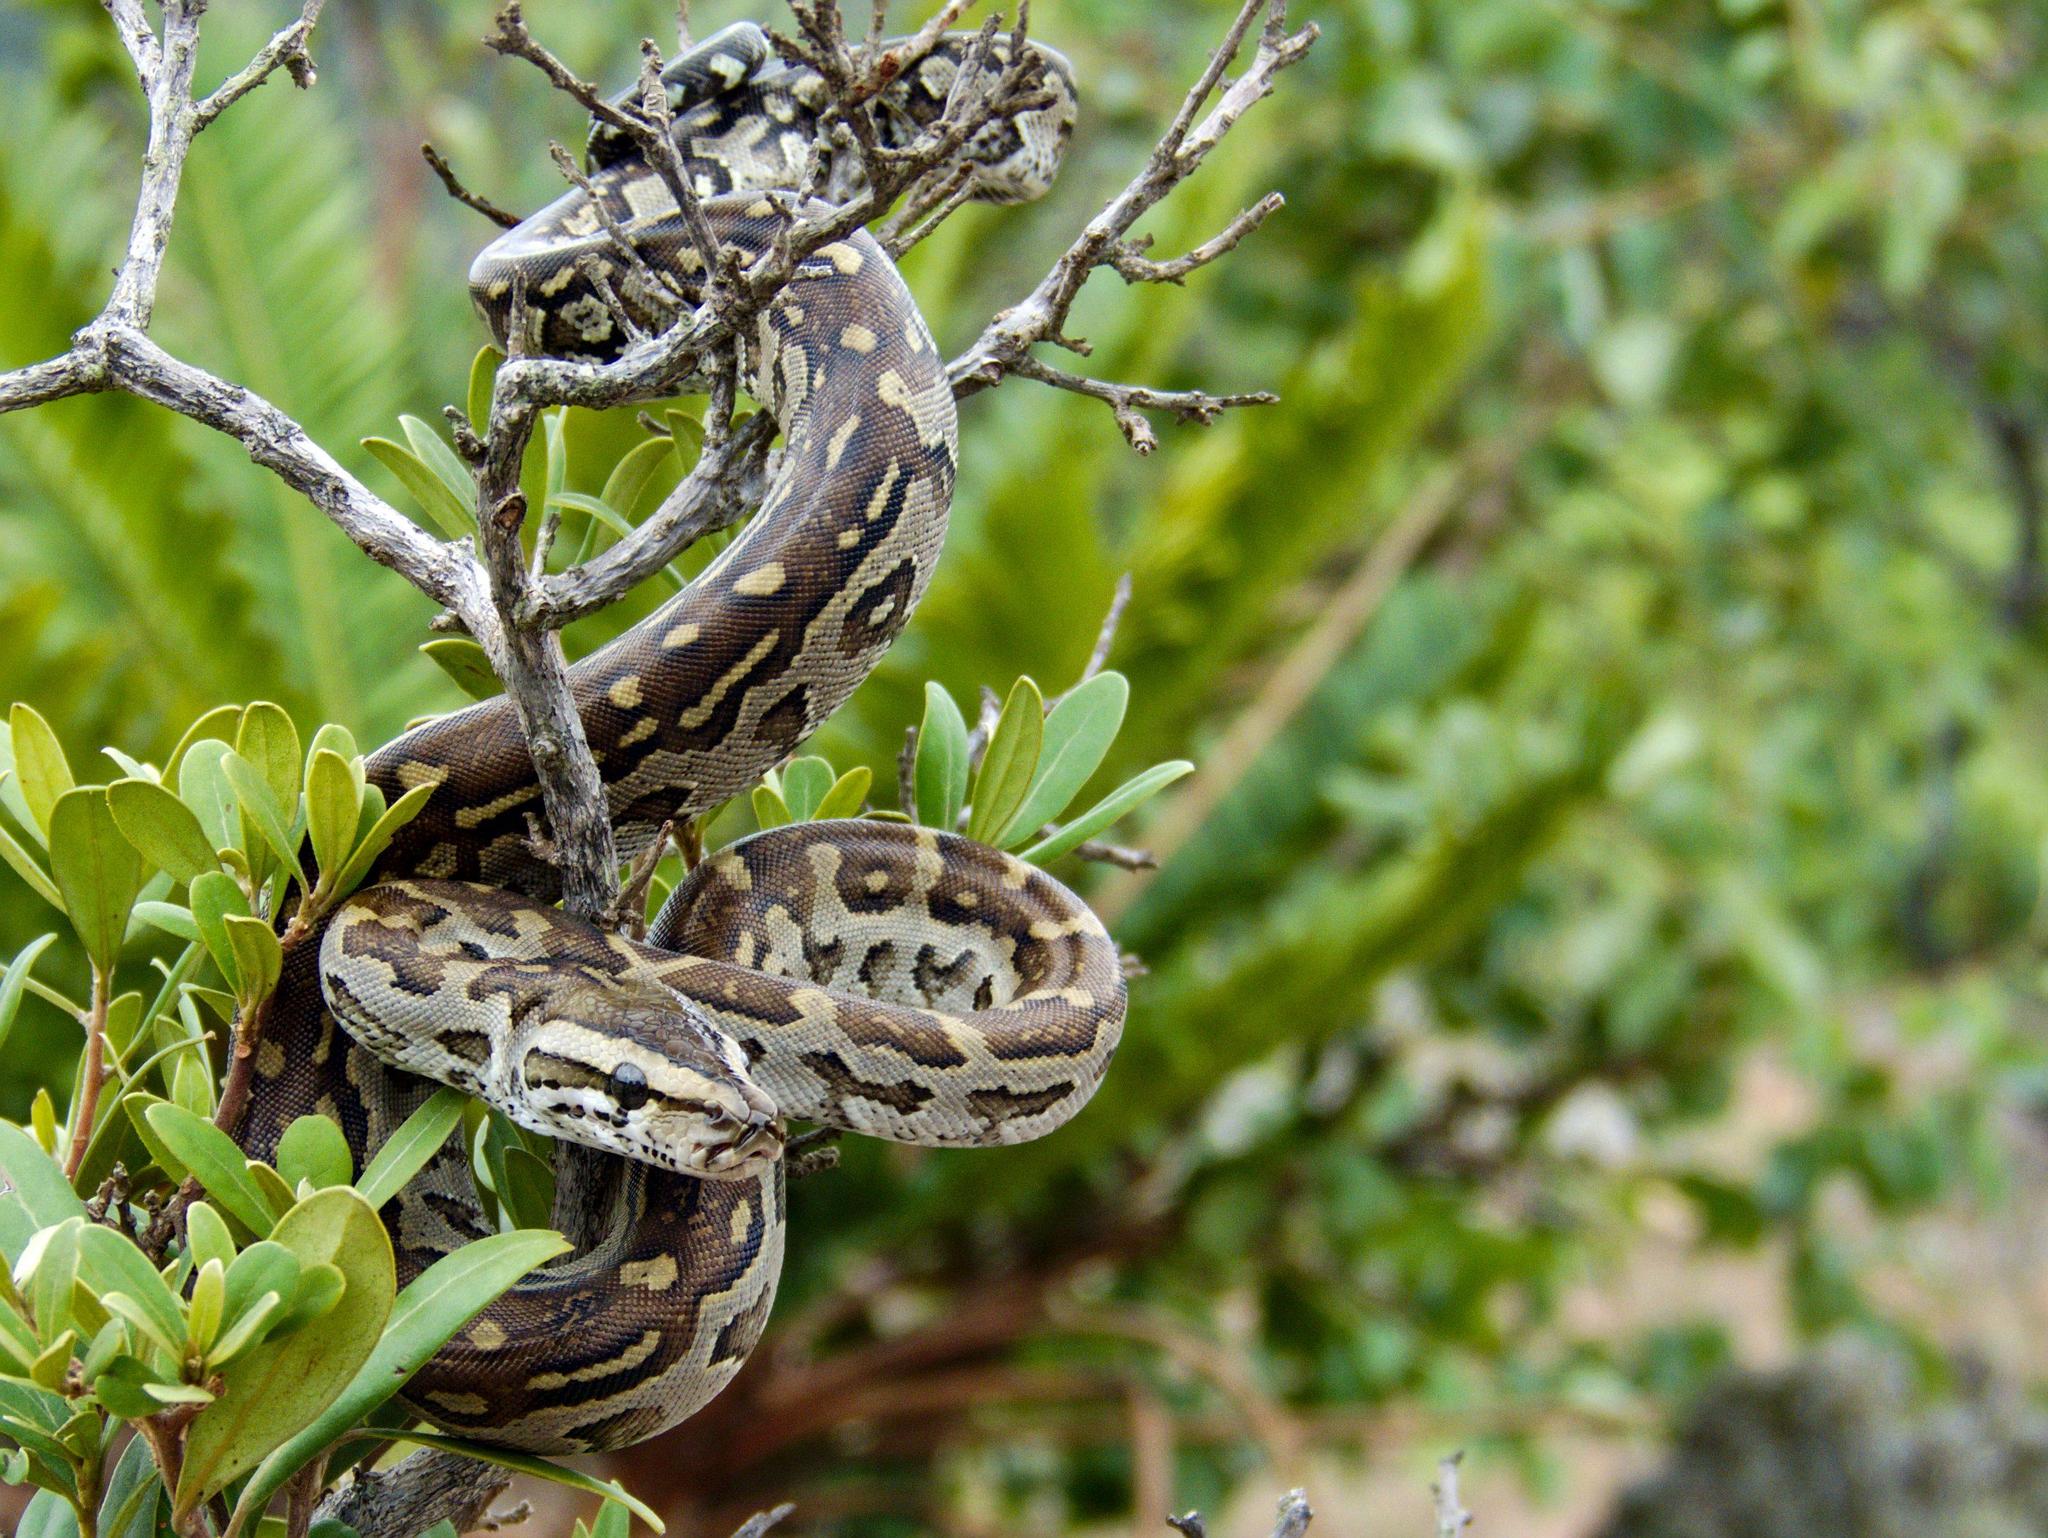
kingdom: Animalia
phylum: Chordata
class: Squamata
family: Pythonidae
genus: Python
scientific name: Python natalensis
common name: Southern african rock python
